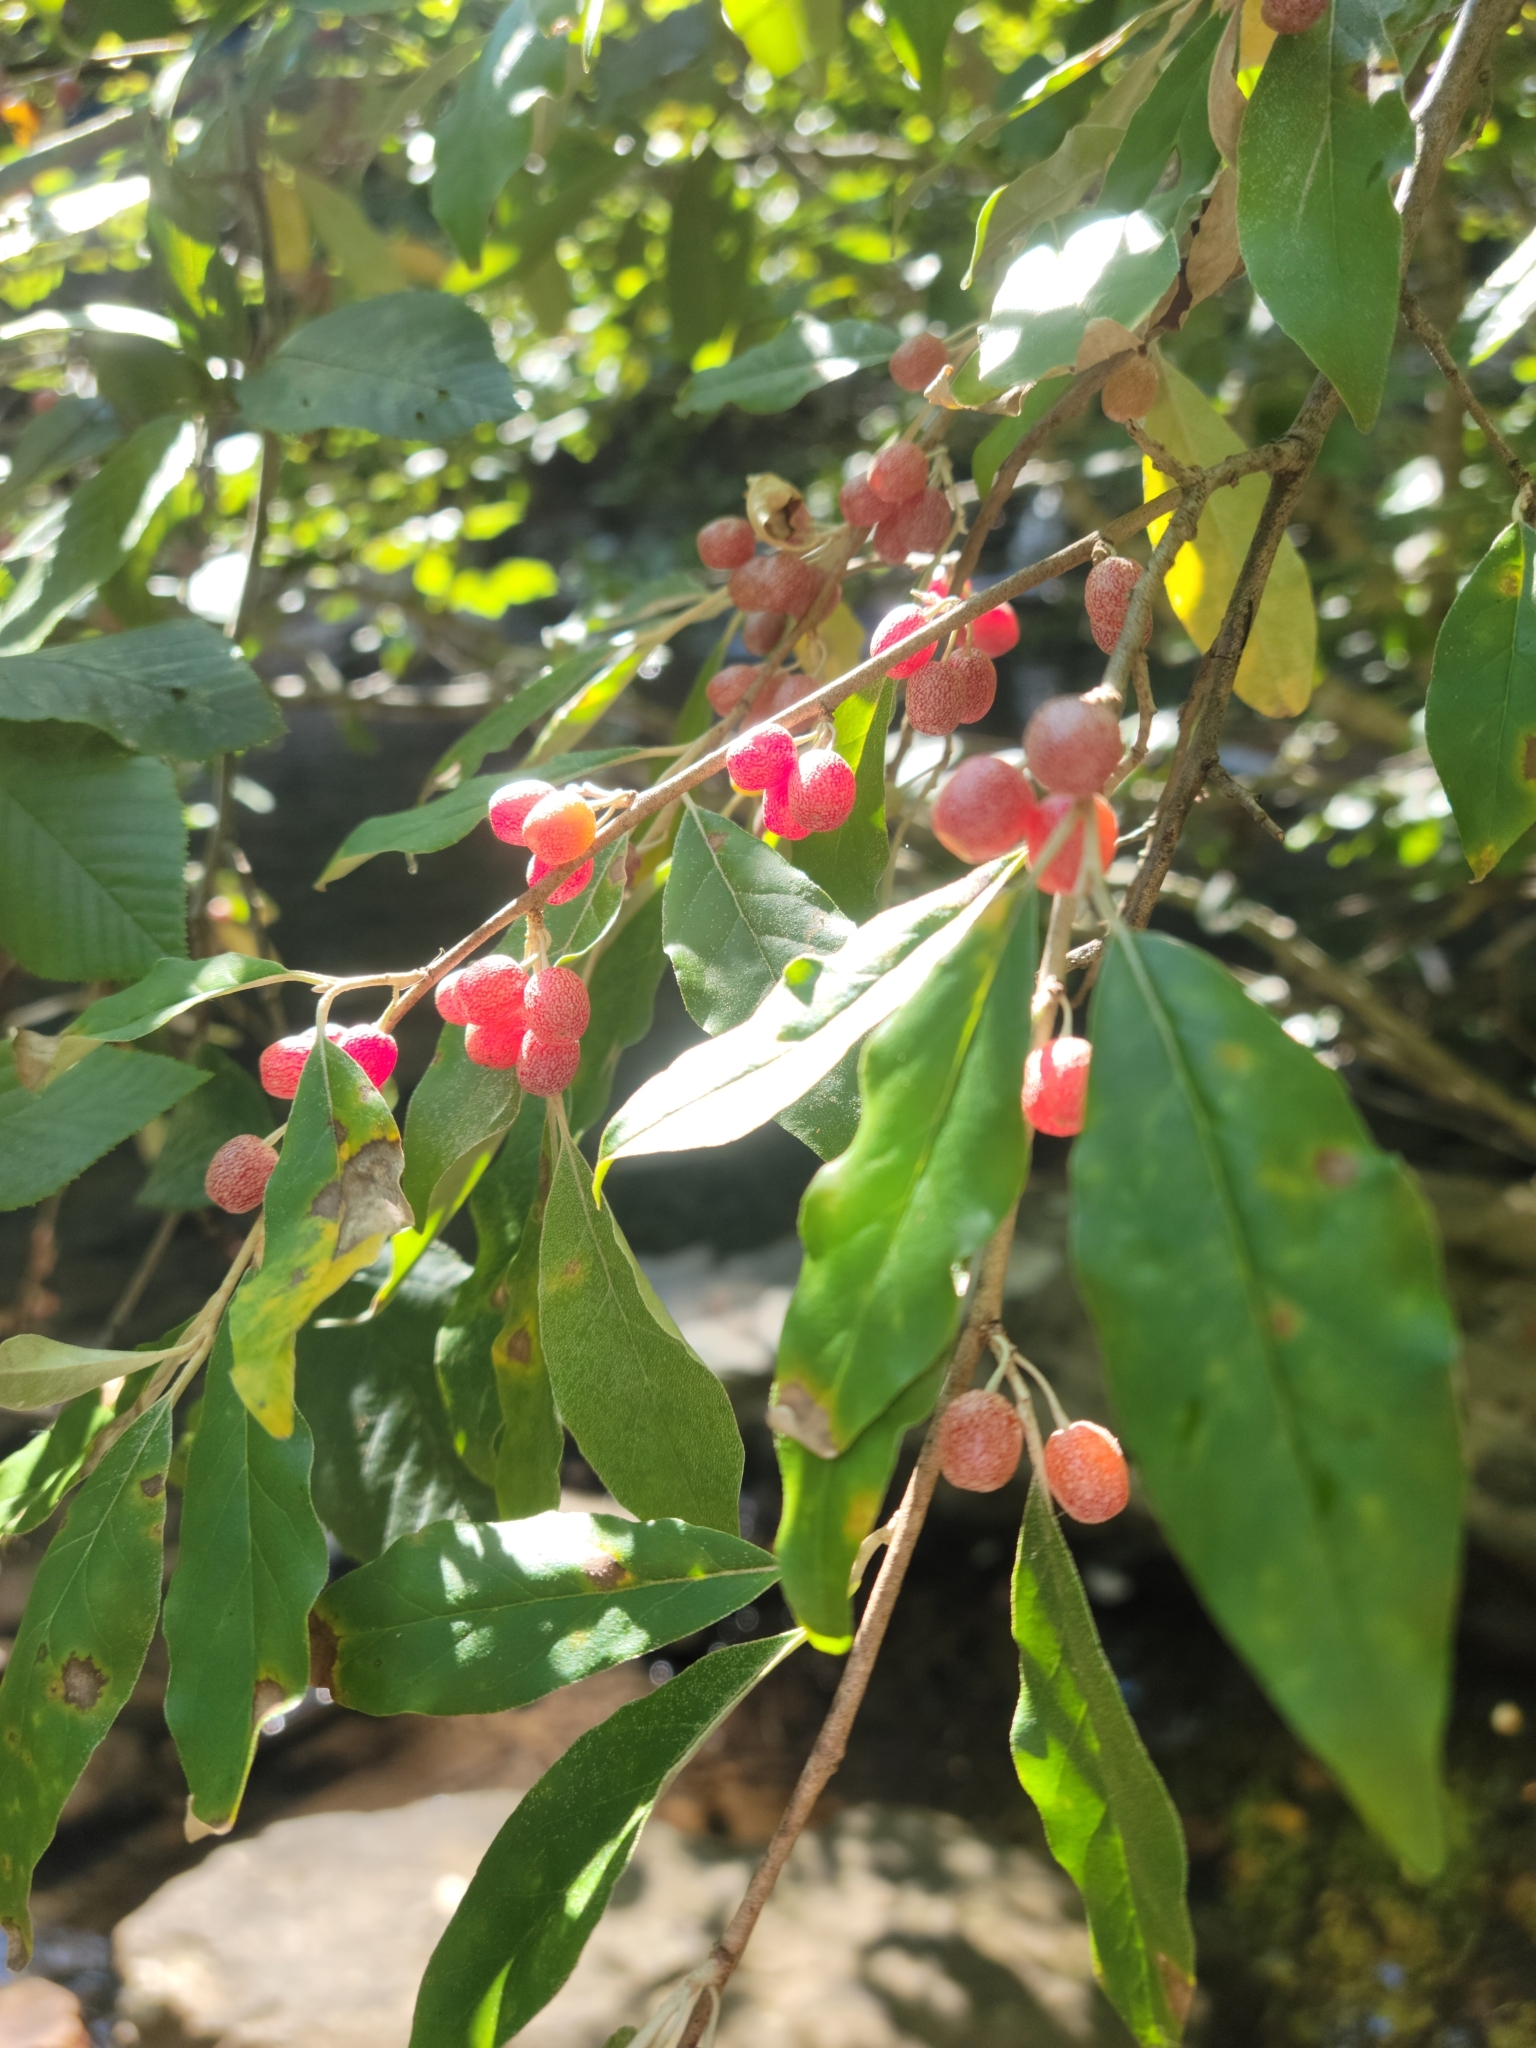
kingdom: Plantae
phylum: Tracheophyta
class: Magnoliopsida
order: Rosales
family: Elaeagnaceae
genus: Elaeagnus
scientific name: Elaeagnus umbellata
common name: Autumn olive
